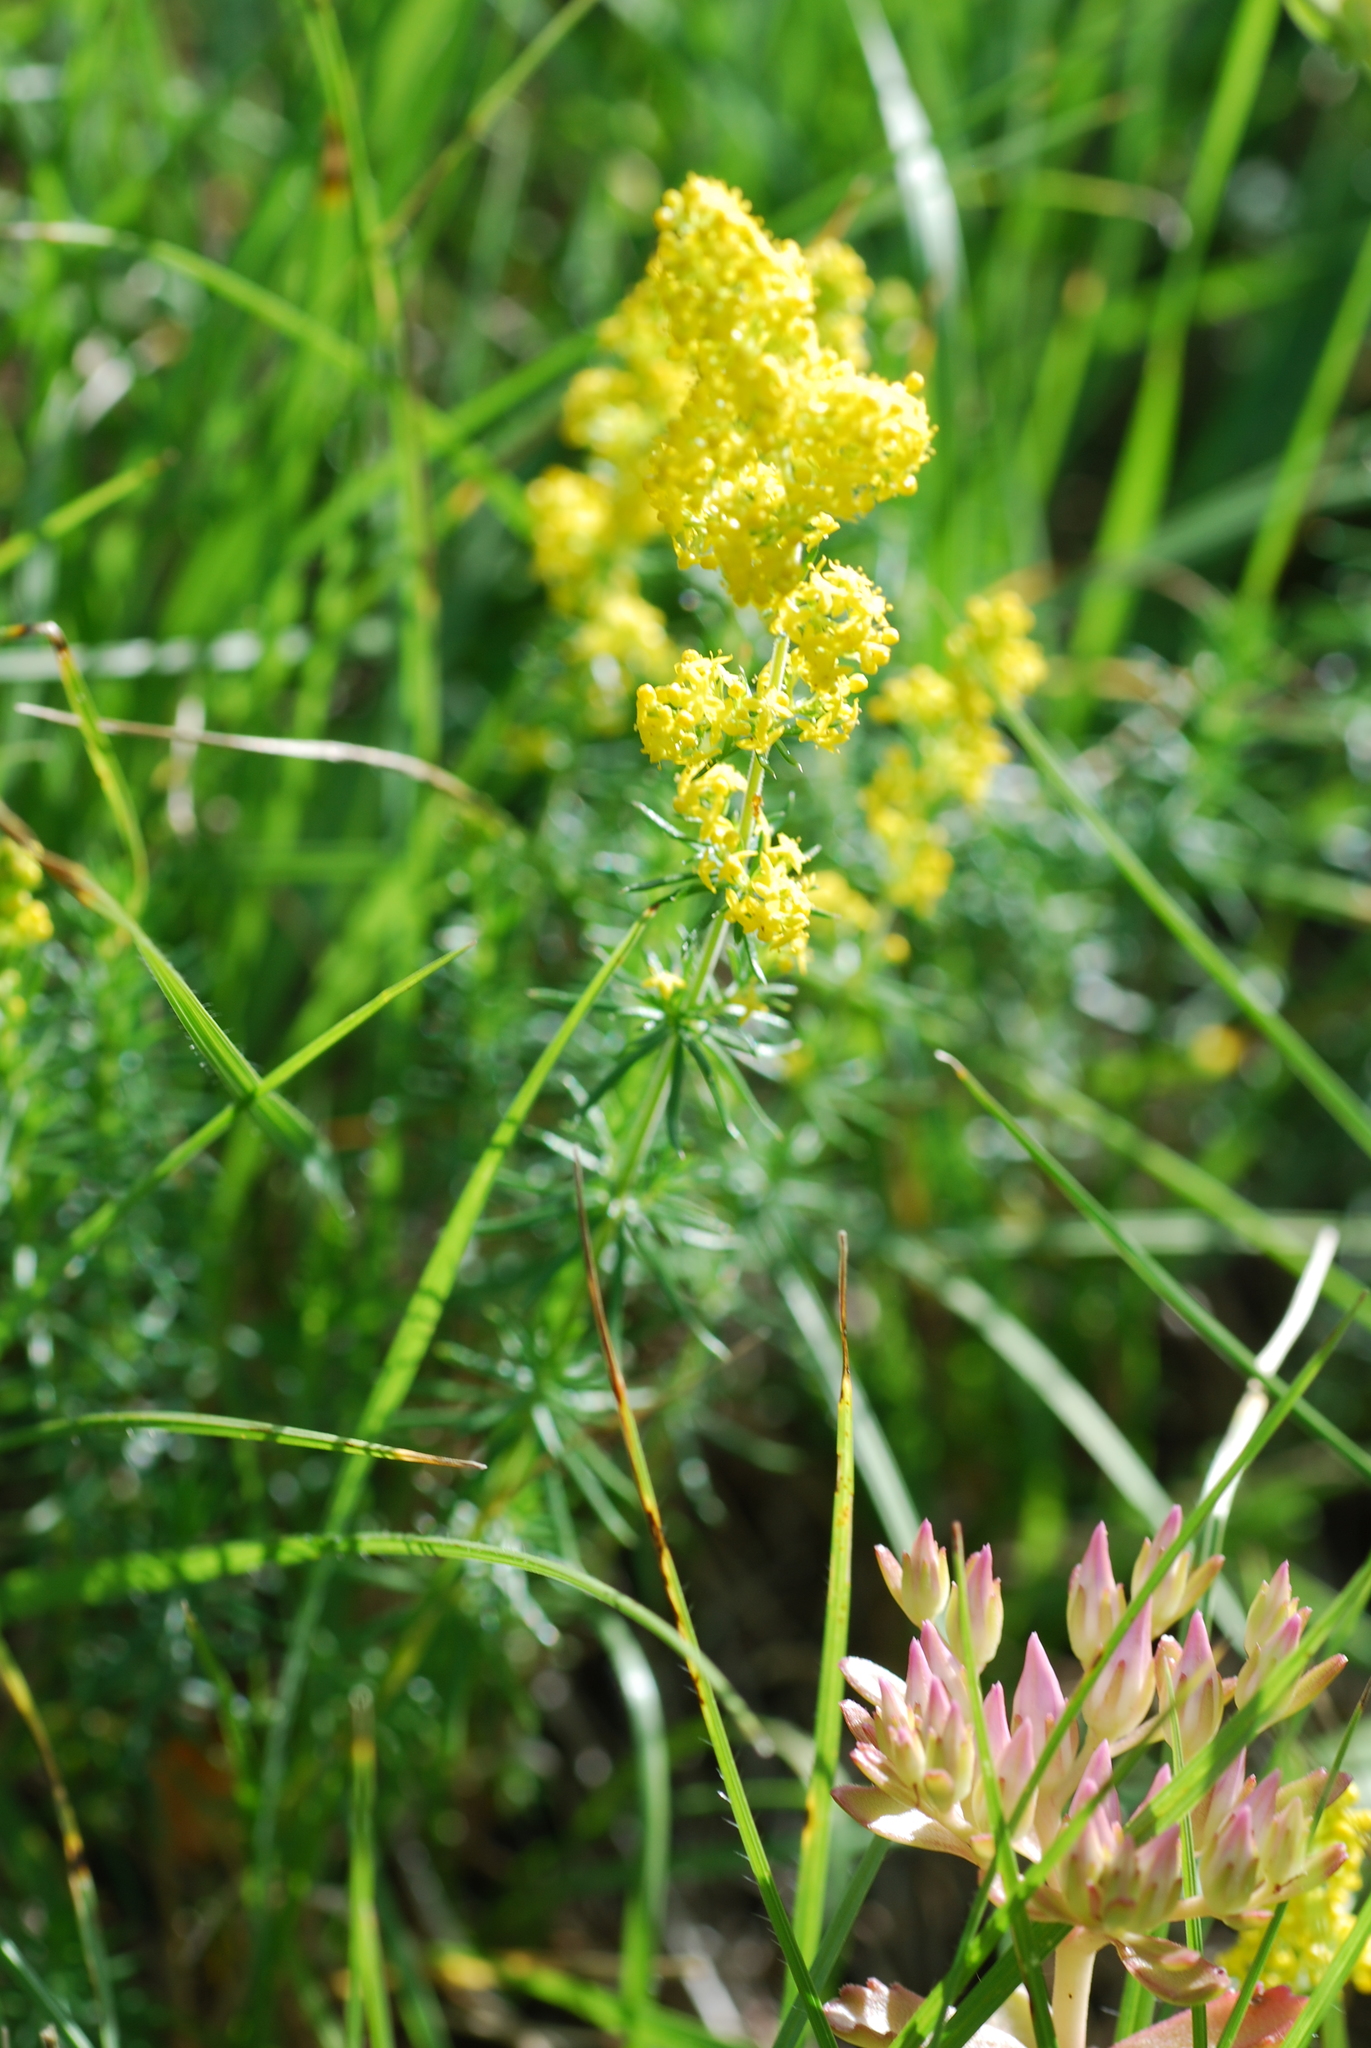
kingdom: Plantae
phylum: Tracheophyta
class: Magnoliopsida
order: Gentianales
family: Rubiaceae
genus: Galium
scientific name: Galium verum
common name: Lady's bedstraw
